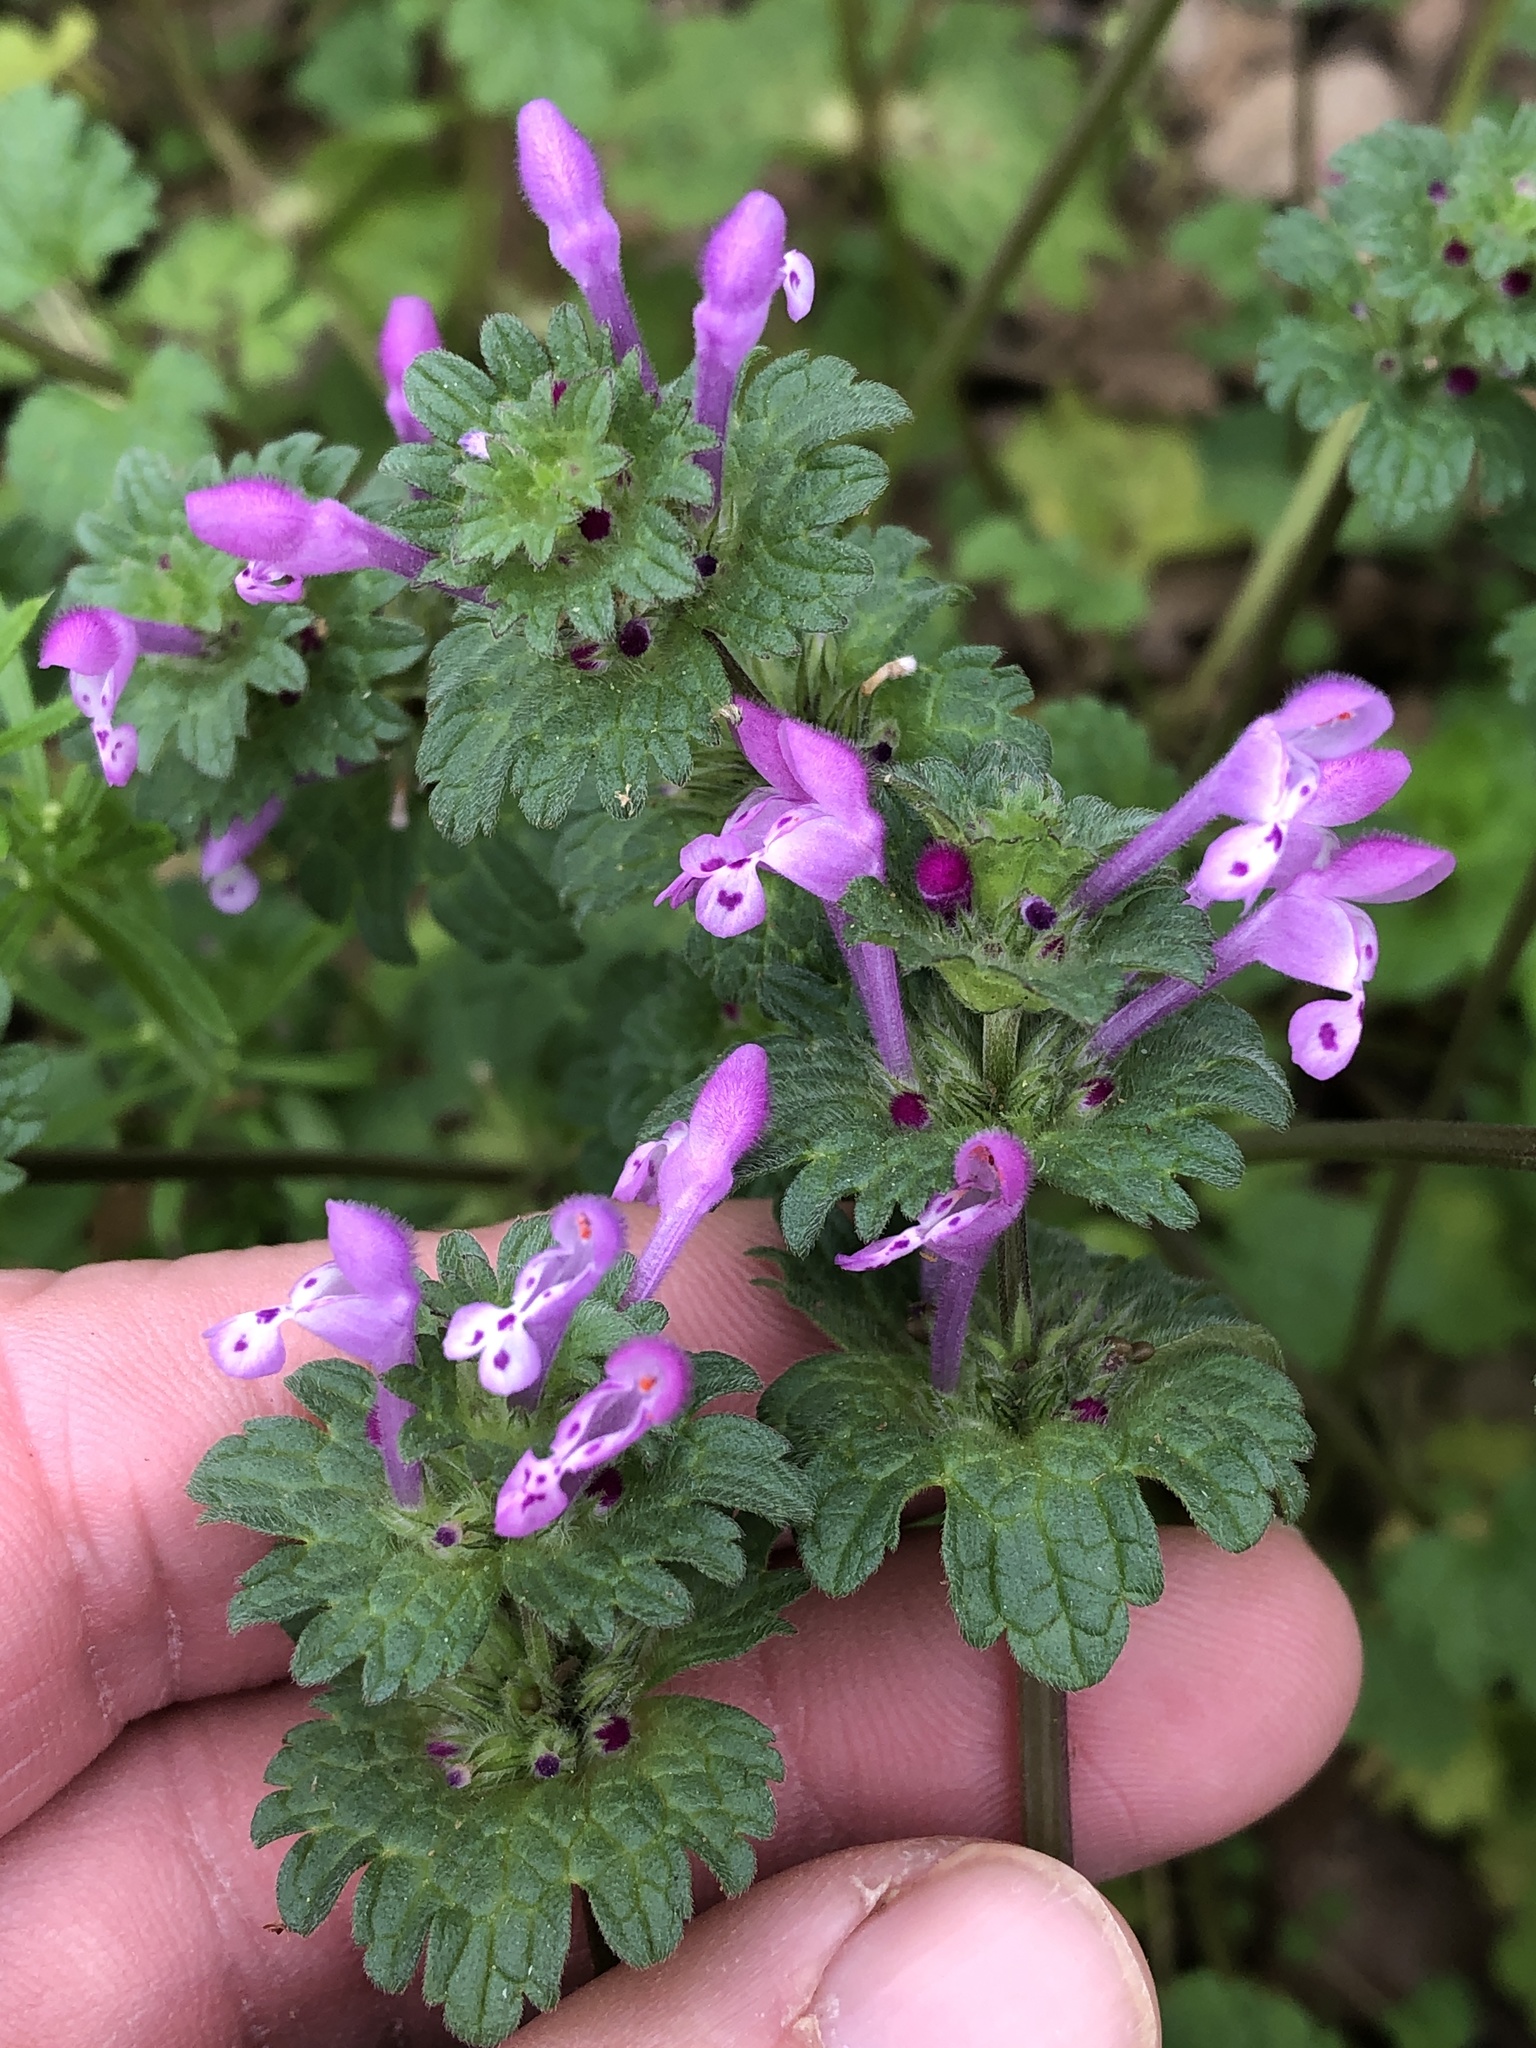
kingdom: Plantae
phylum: Tracheophyta
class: Magnoliopsida
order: Lamiales
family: Lamiaceae
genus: Lamium
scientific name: Lamium amplexicaule
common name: Henbit dead-nettle
